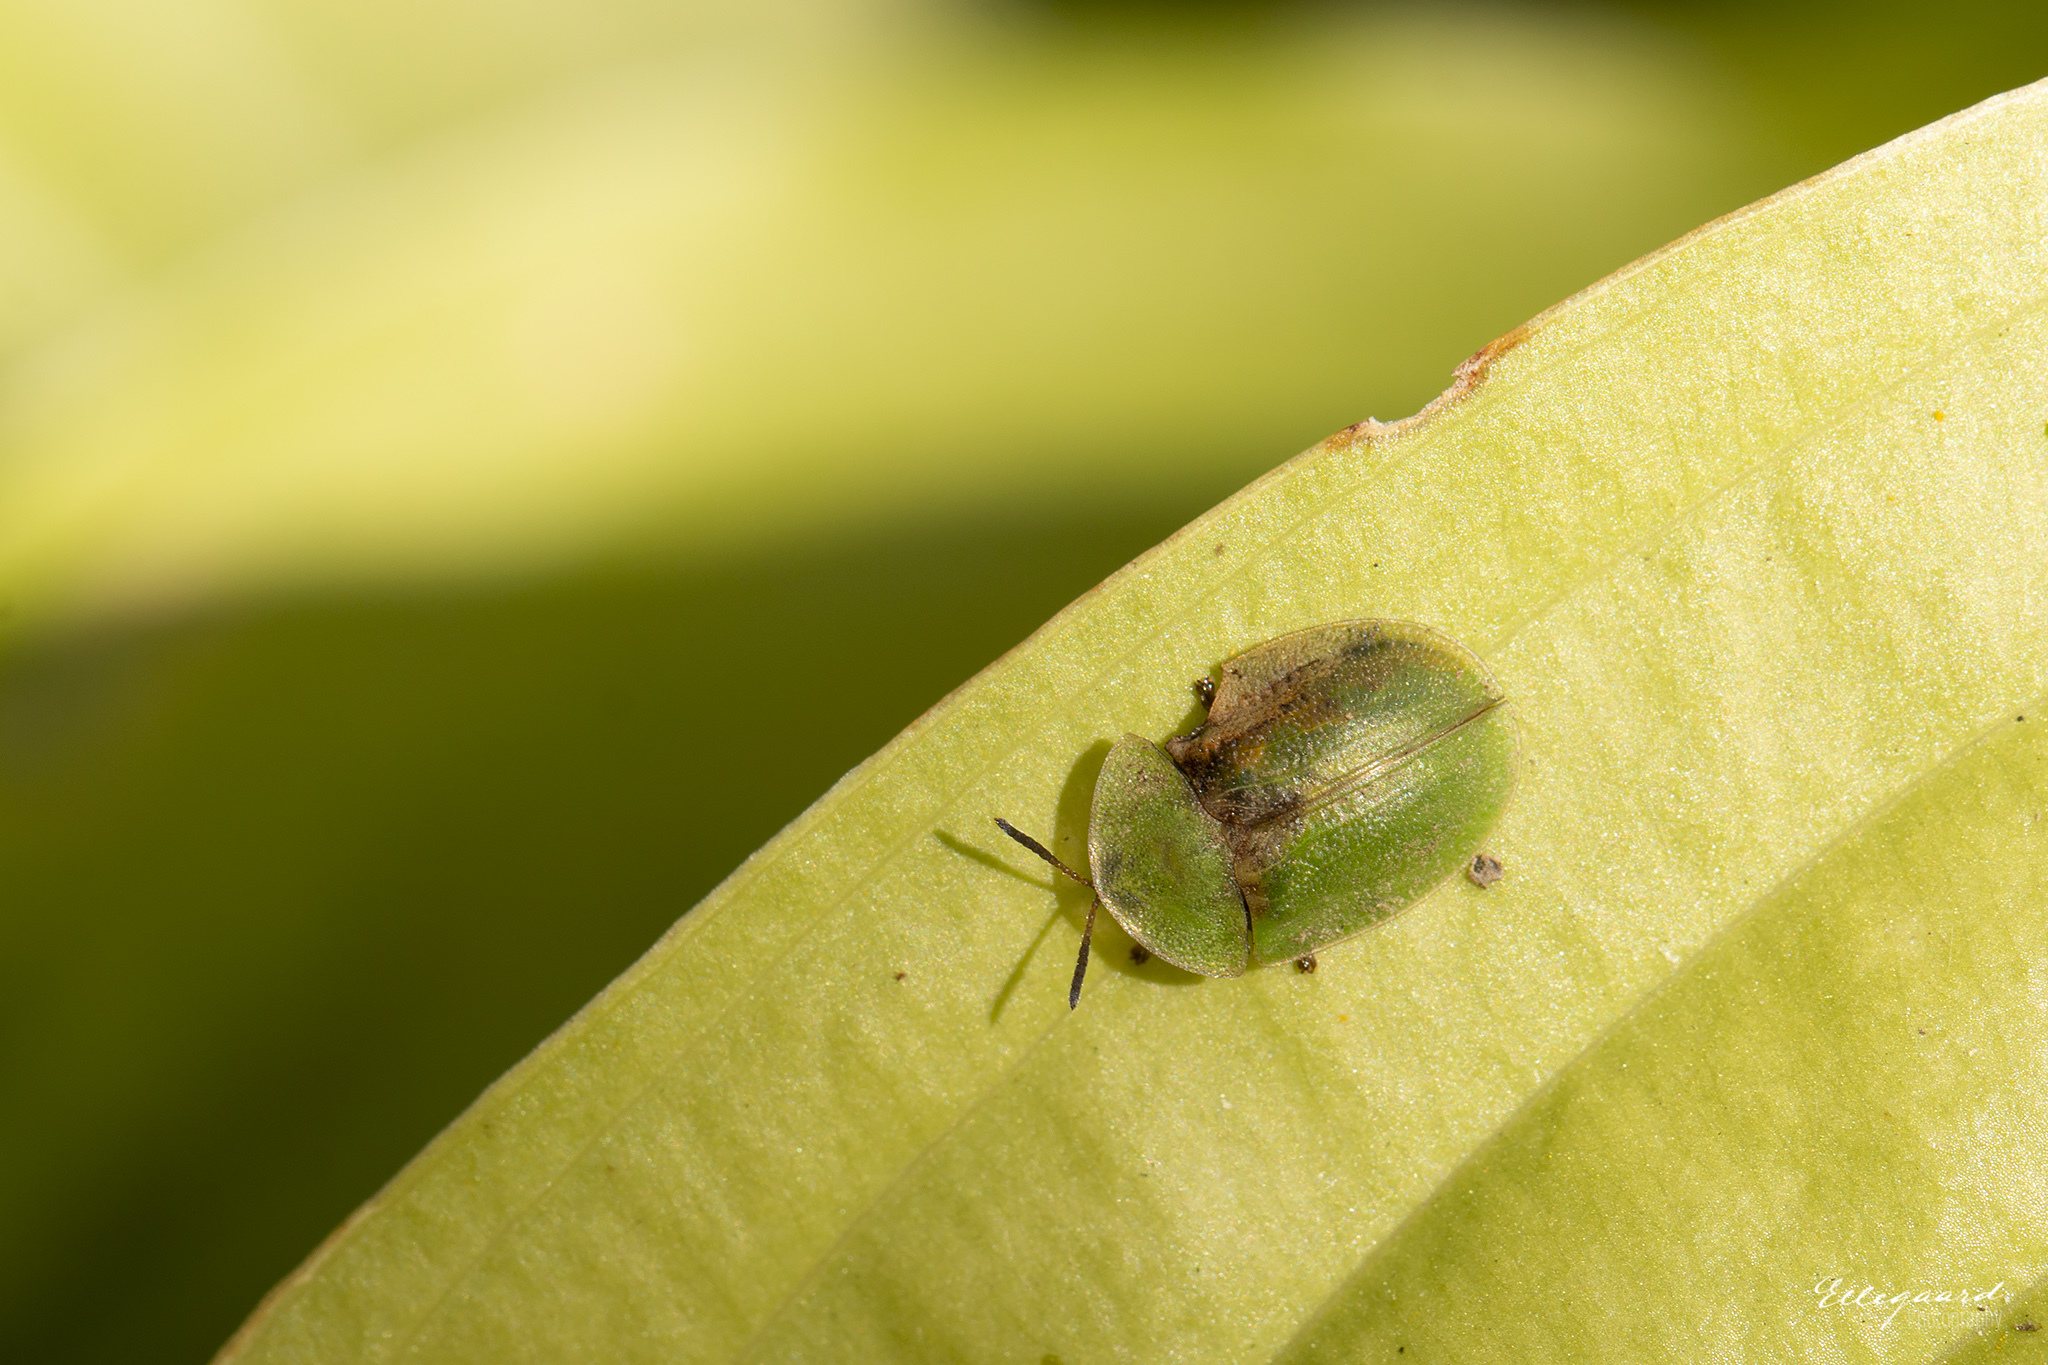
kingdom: Animalia
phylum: Arthropoda
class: Insecta
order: Coleoptera
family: Chrysomelidae
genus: Cassida
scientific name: Cassida rubiginosa
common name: Thistle tortoise beetle
